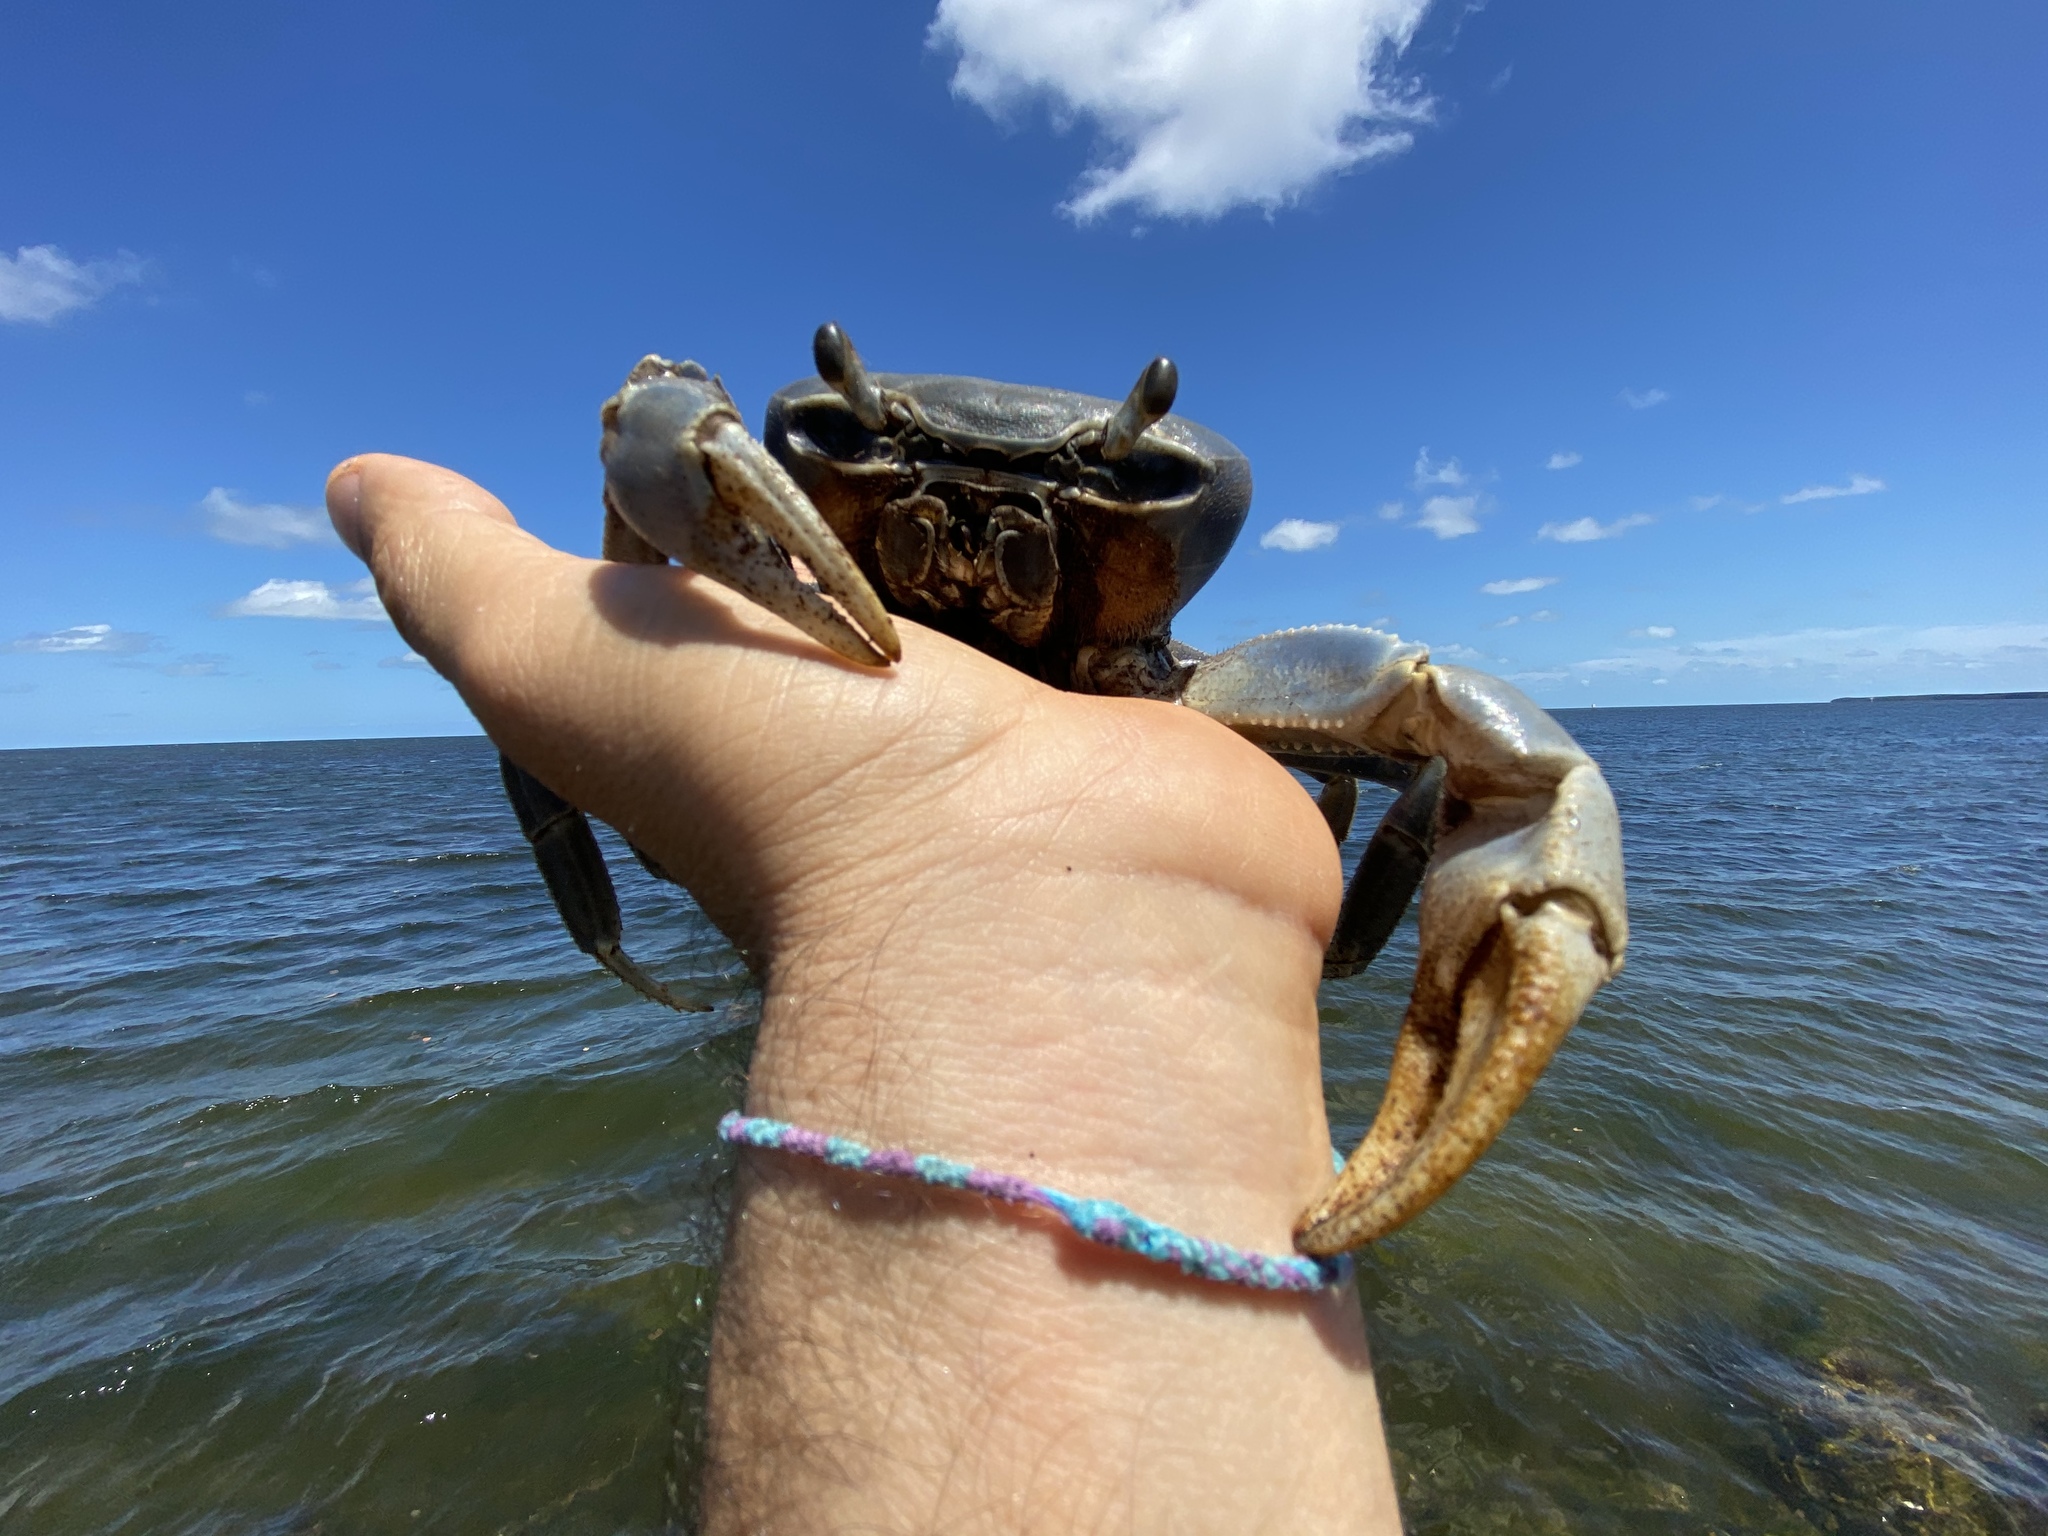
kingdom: Animalia
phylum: Arthropoda
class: Malacostraca
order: Decapoda
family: Gecarcinidae
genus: Cardisoma
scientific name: Cardisoma guanhumi
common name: Great land crab
